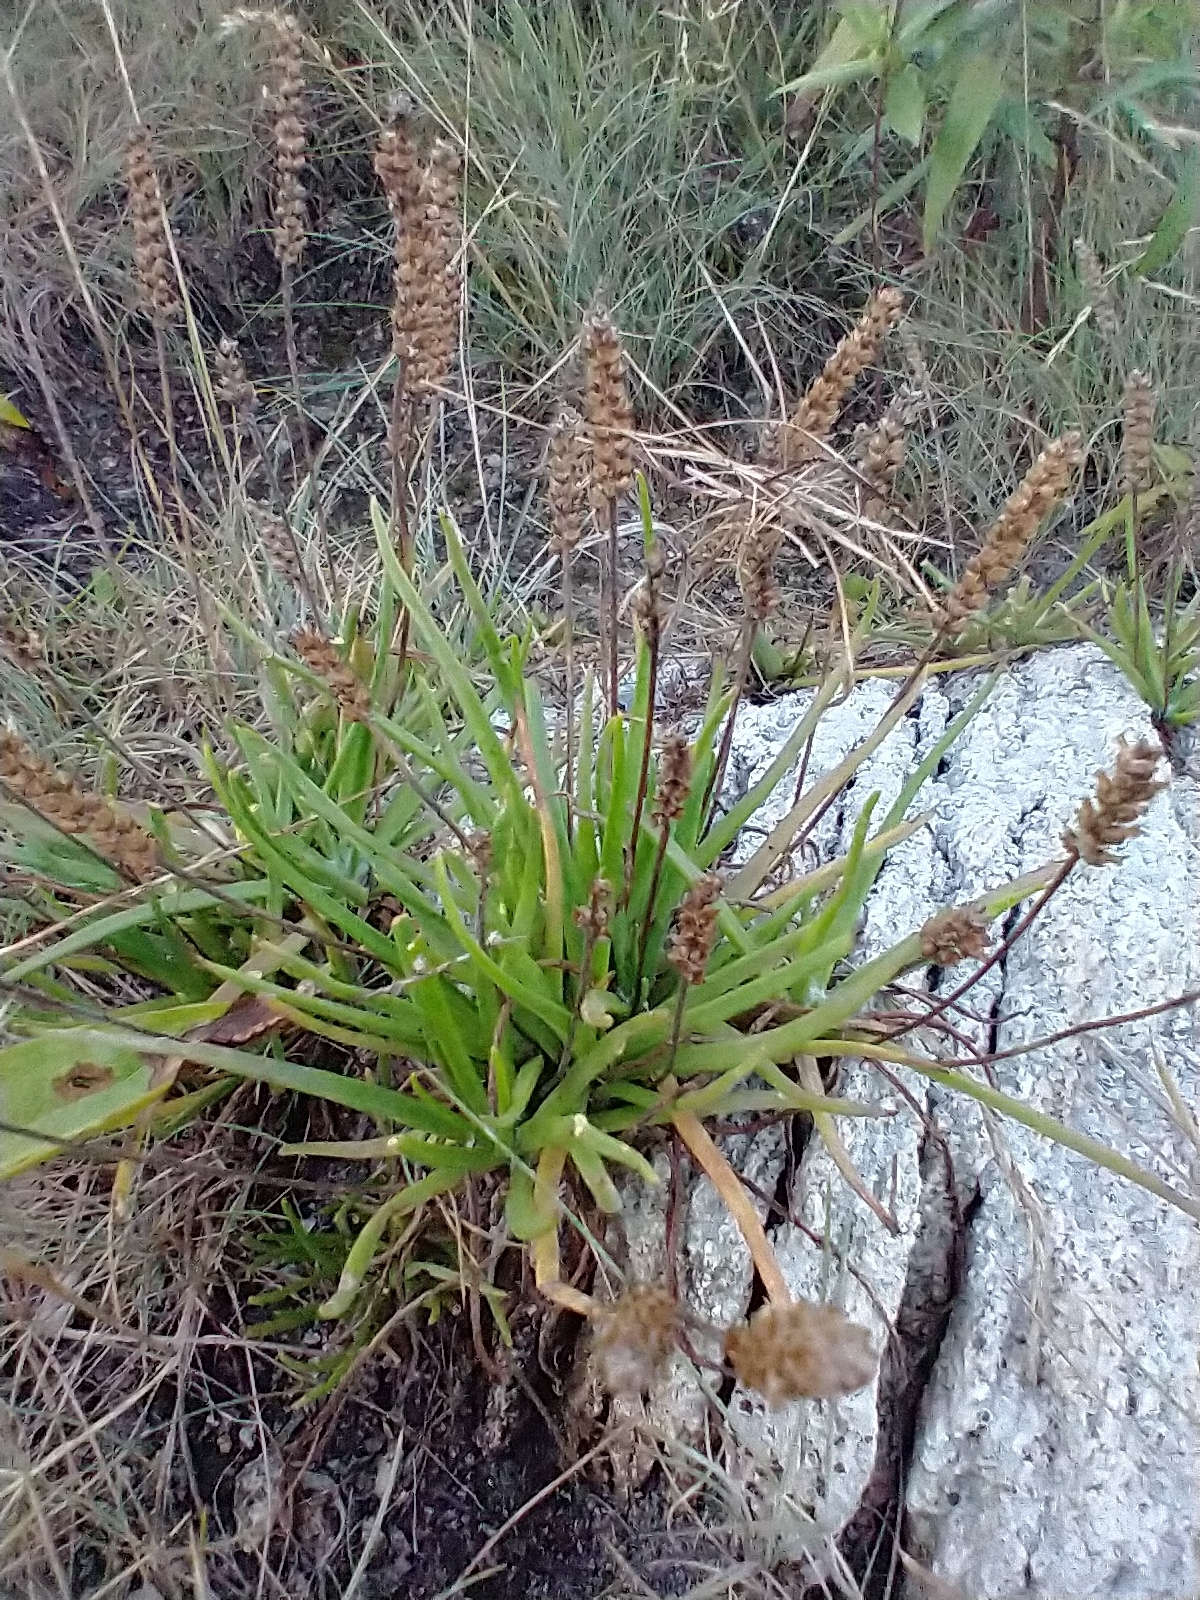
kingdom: Plantae
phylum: Tracheophyta
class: Magnoliopsida
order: Lamiales
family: Plantaginaceae
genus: Plantago
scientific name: Plantago maritima
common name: Sea plantain
